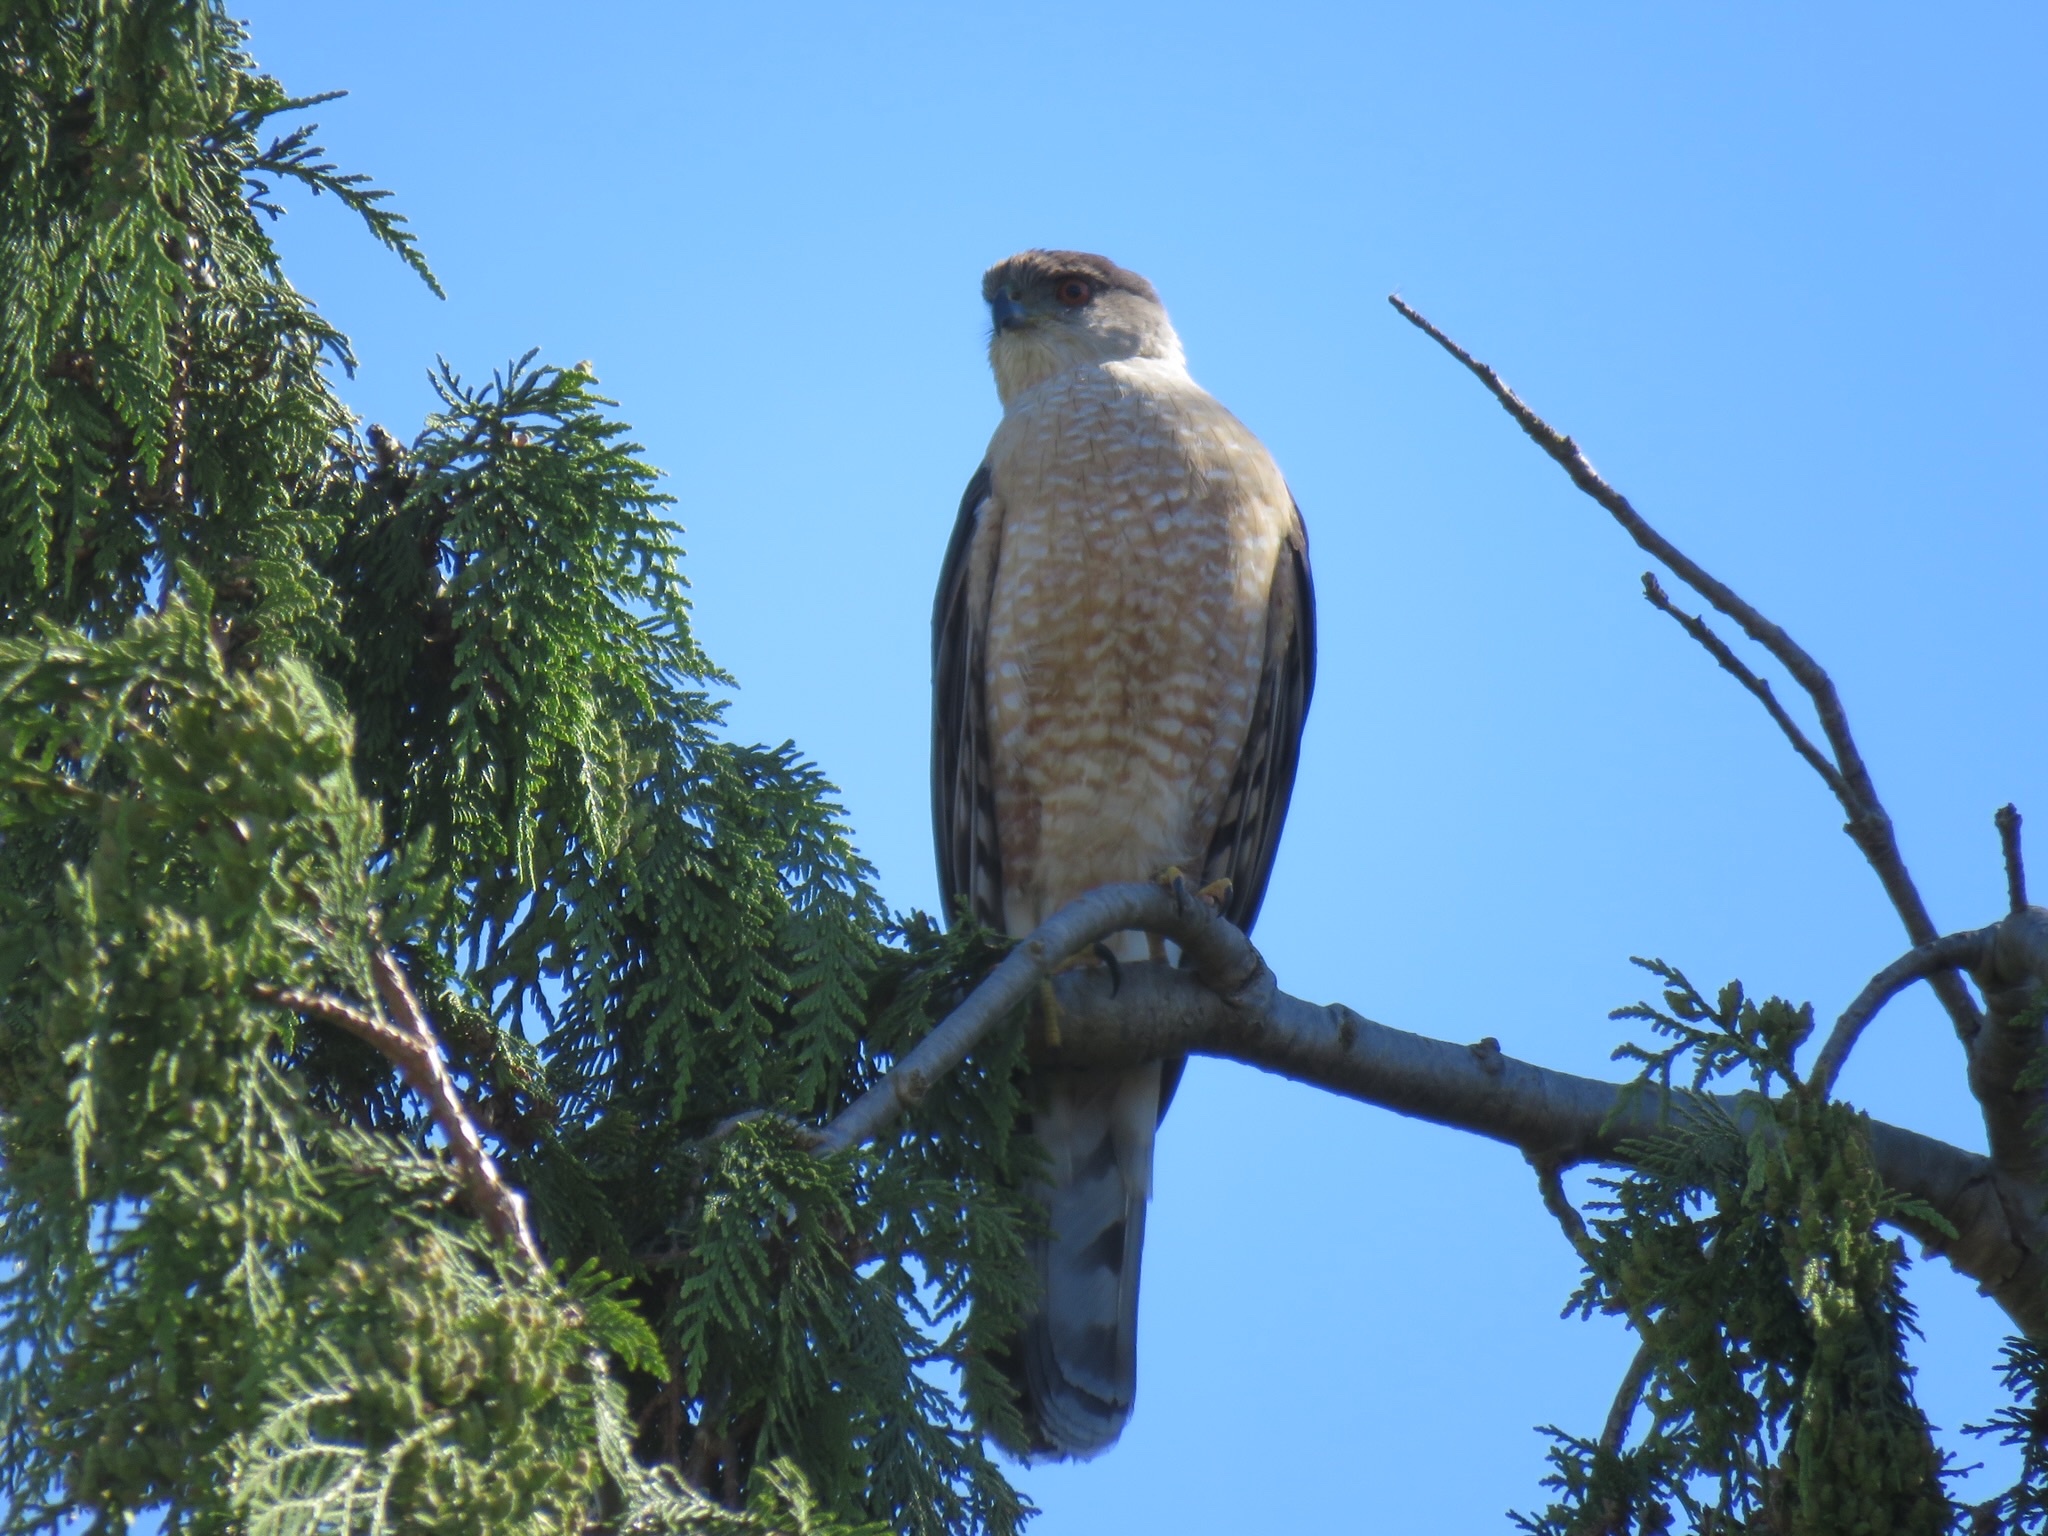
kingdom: Animalia
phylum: Chordata
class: Aves
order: Accipitriformes
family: Accipitridae
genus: Accipiter
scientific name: Accipiter cooperii
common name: Cooper's hawk
